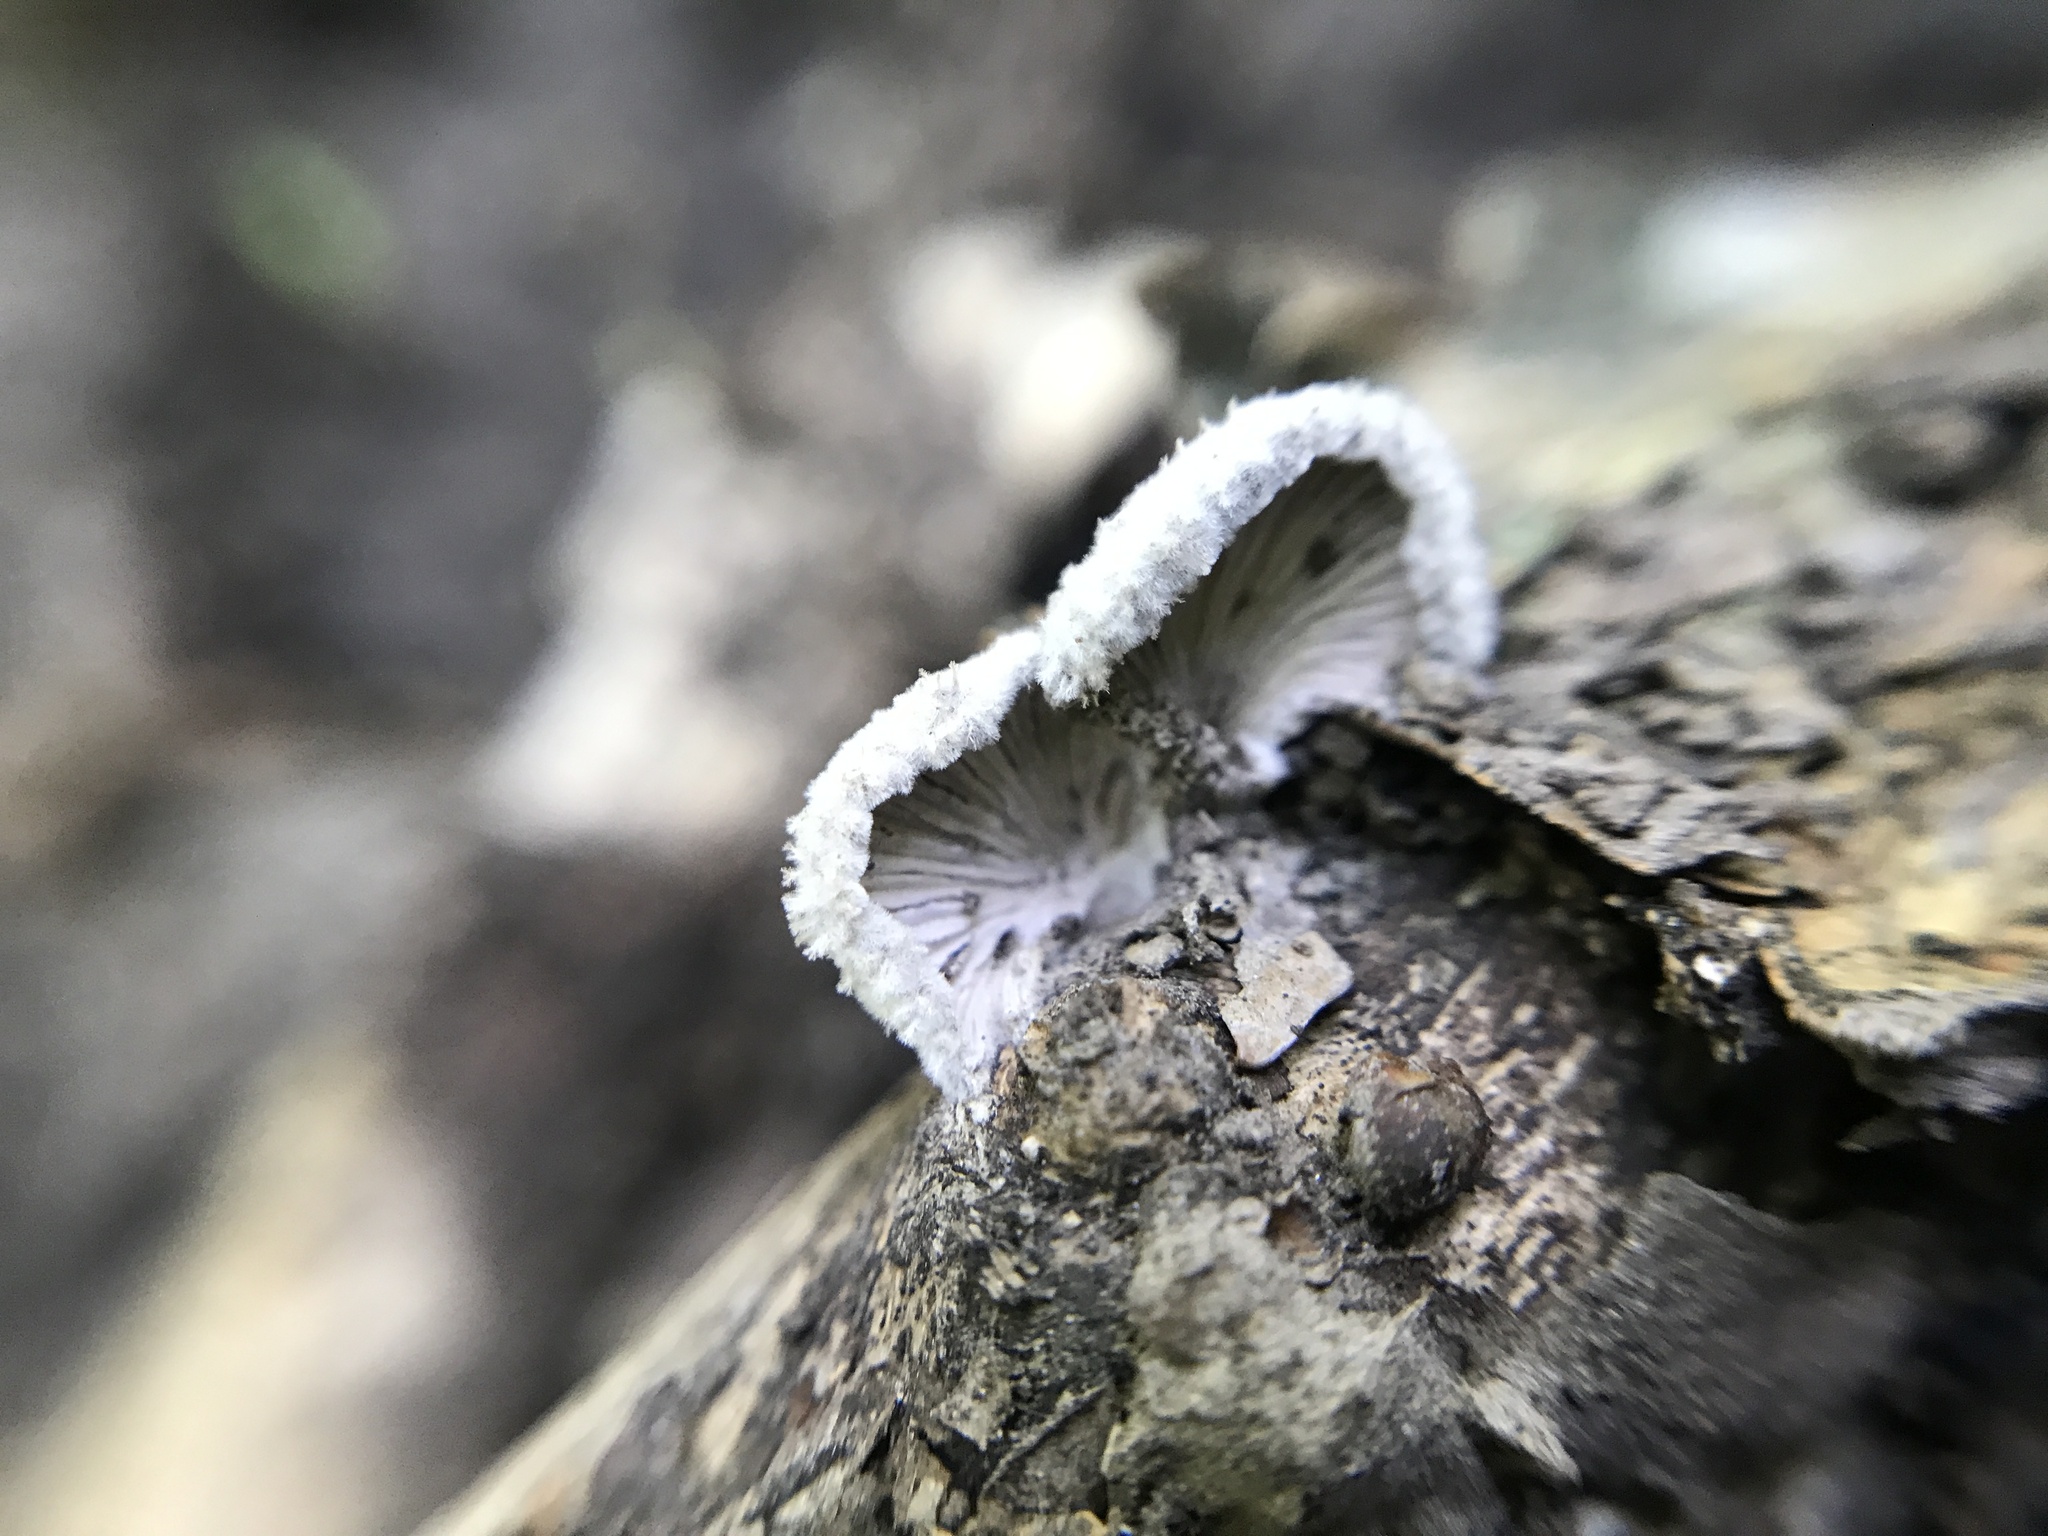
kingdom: Fungi
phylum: Basidiomycota
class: Agaricomycetes
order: Agaricales
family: Schizophyllaceae
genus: Schizophyllum
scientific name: Schizophyllum commune
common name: Common porecrust
